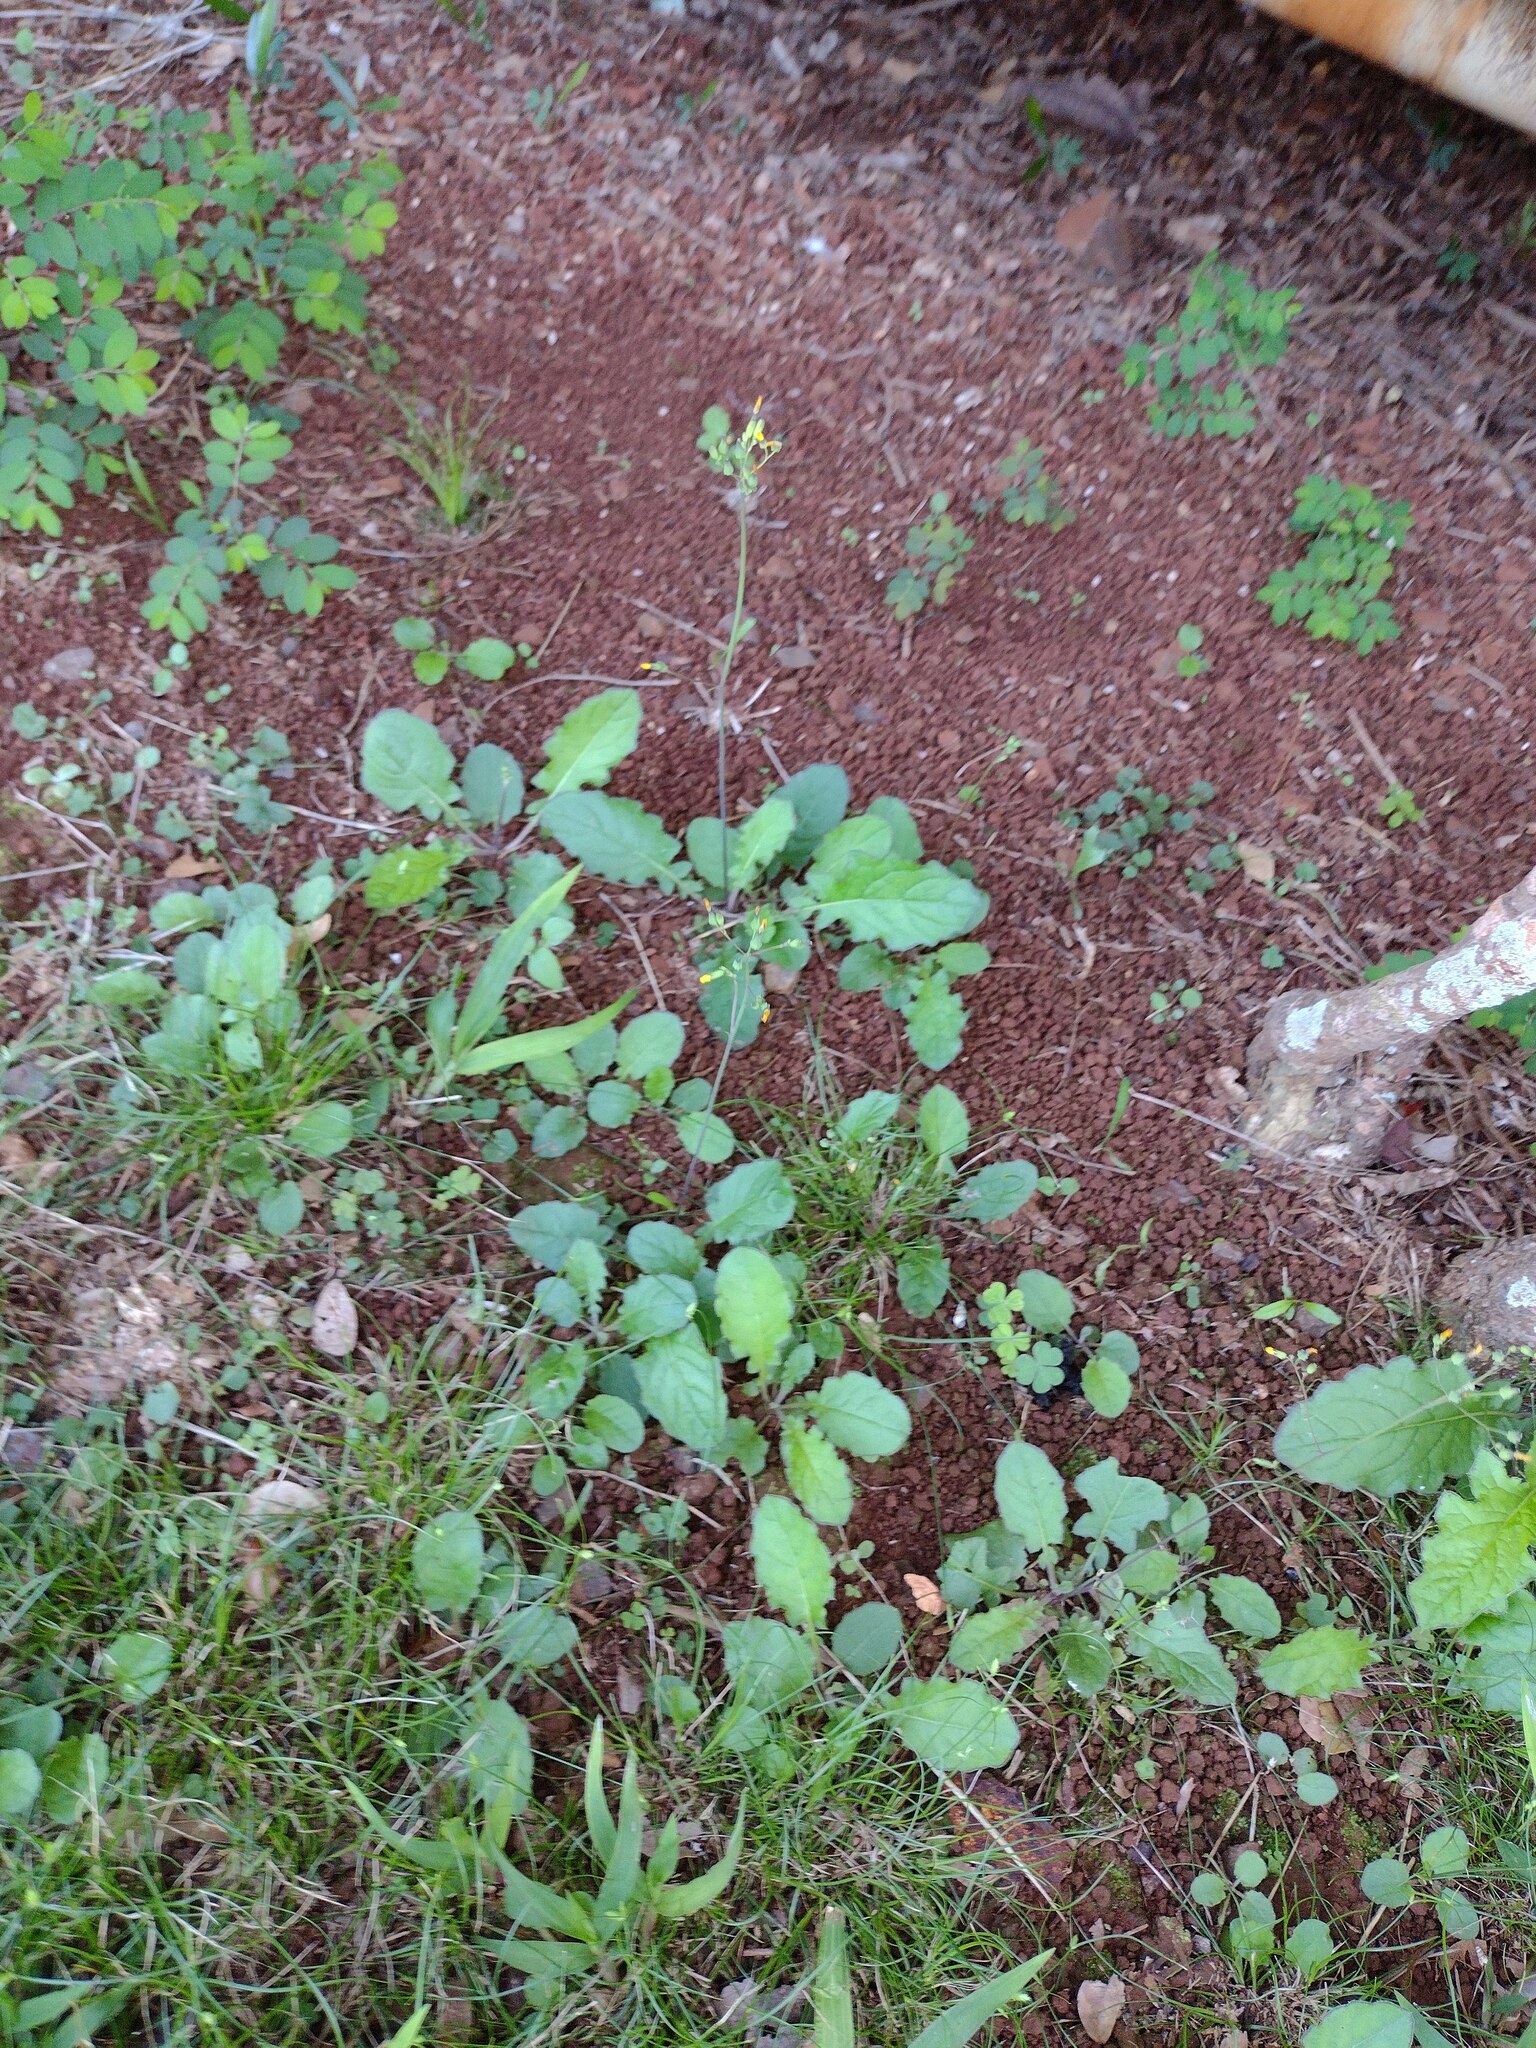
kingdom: Plantae
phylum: Tracheophyta
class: Magnoliopsida
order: Asterales
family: Asteraceae
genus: Youngia
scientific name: Youngia japonica
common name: Oriental false hawksbeard
